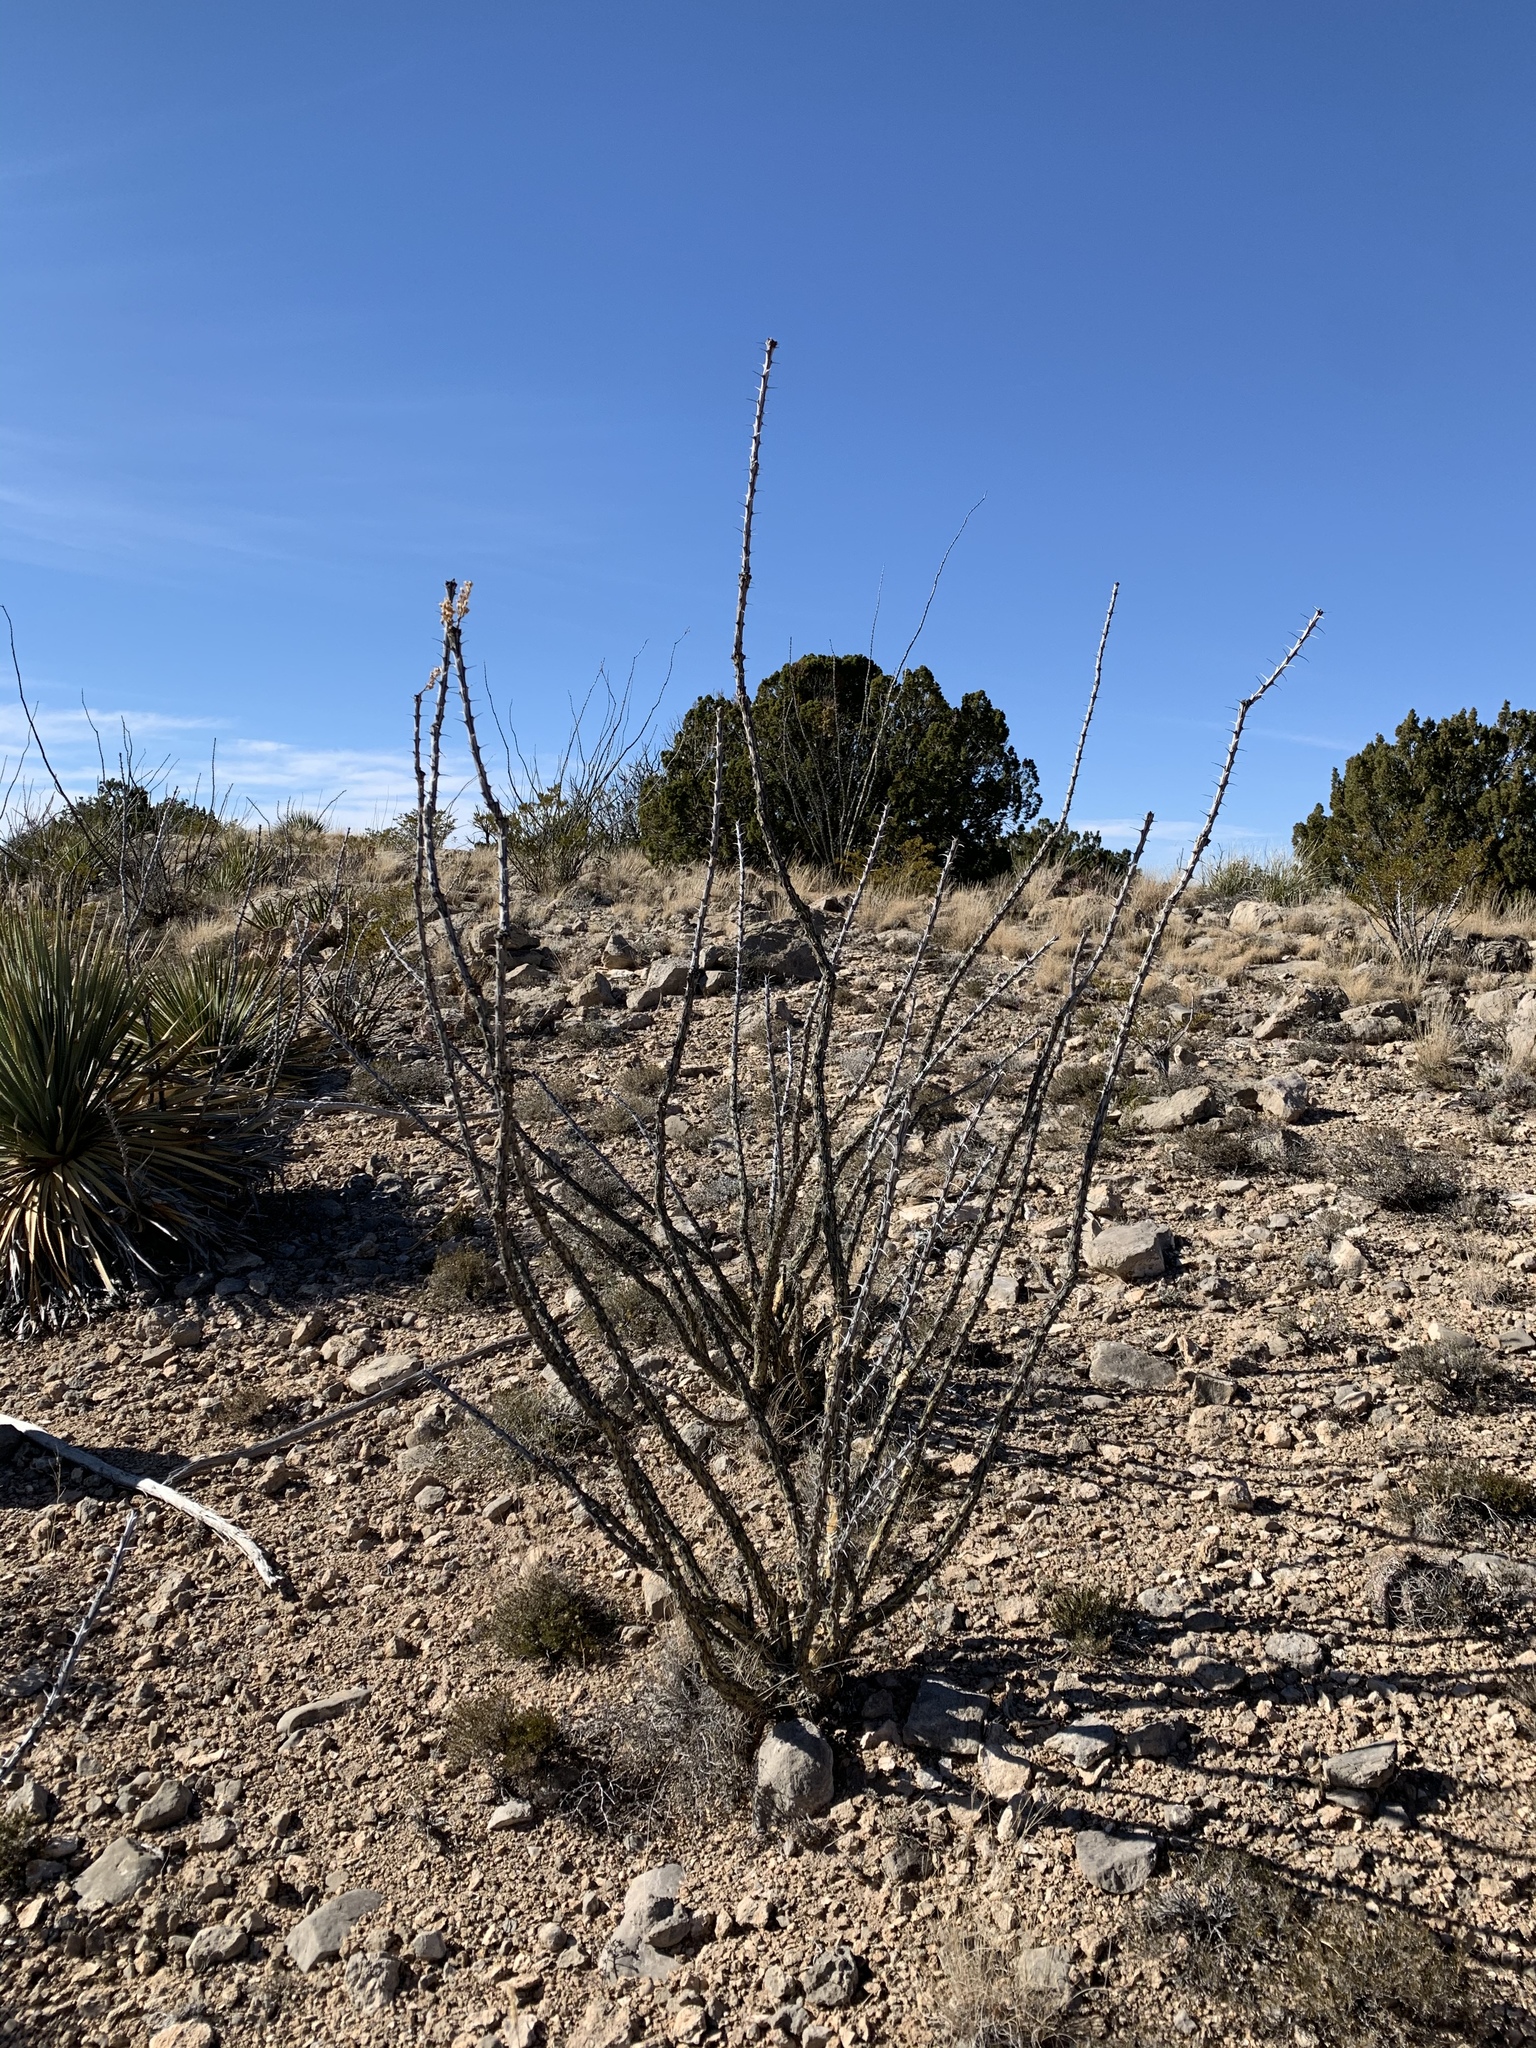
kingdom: Plantae
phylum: Tracheophyta
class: Magnoliopsida
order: Ericales
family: Fouquieriaceae
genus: Fouquieria
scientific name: Fouquieria splendens
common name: Vine-cactus
